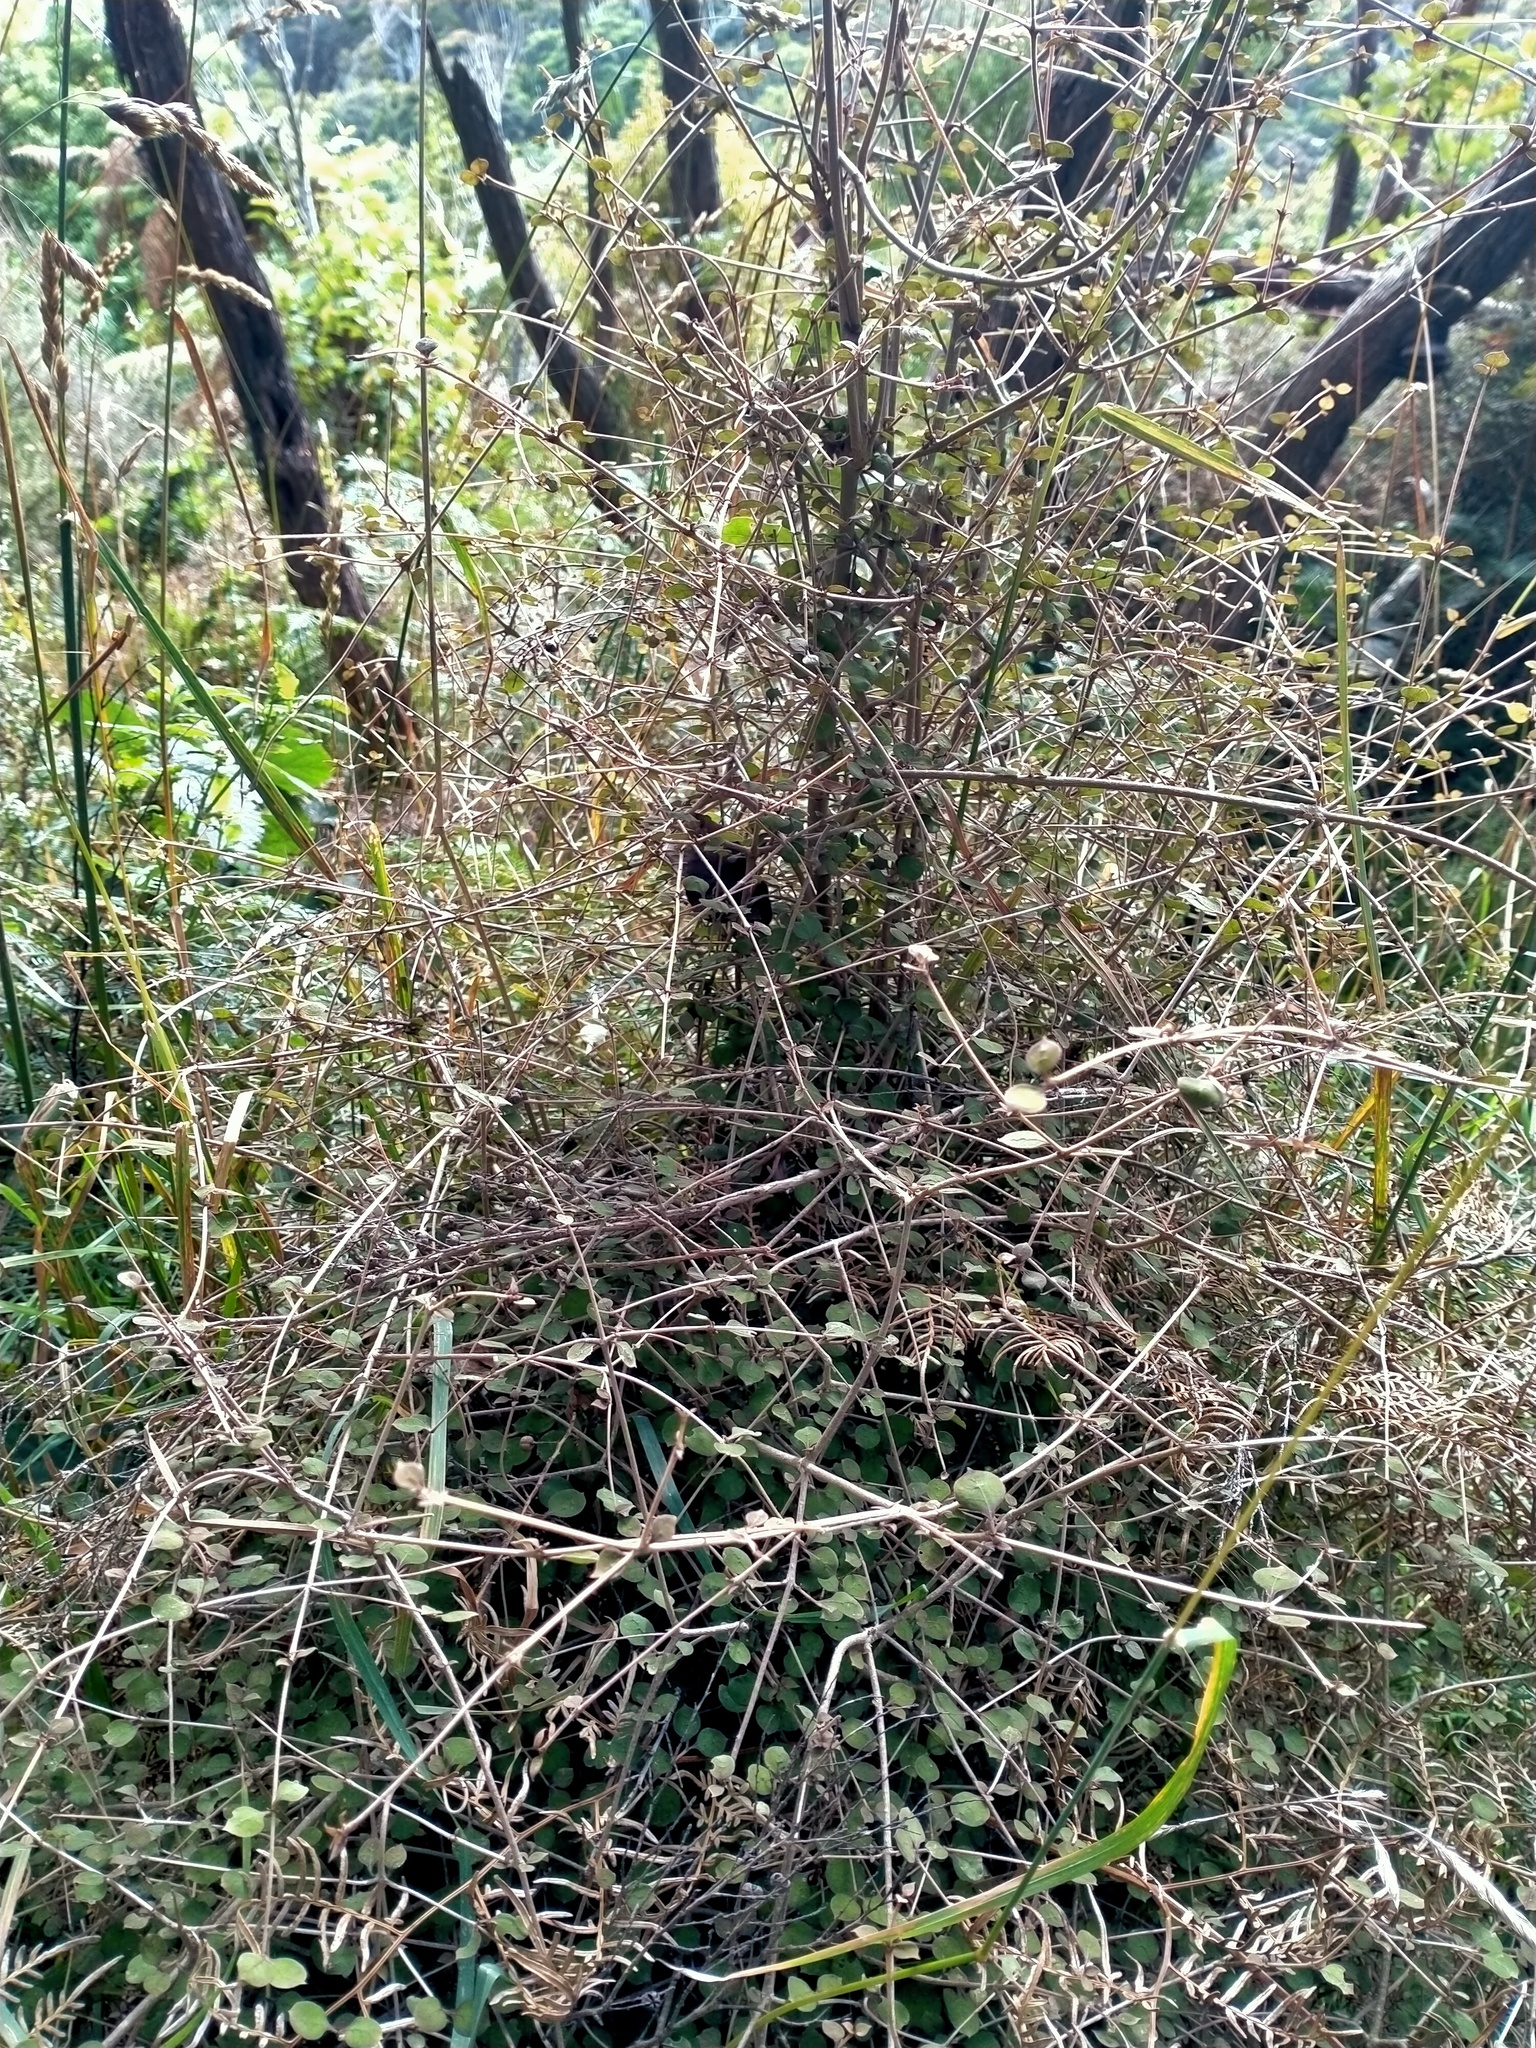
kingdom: Plantae
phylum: Tracheophyta
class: Magnoliopsida
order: Gentianales
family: Rubiaceae
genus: Coprosma
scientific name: Coprosma rotundifolia
